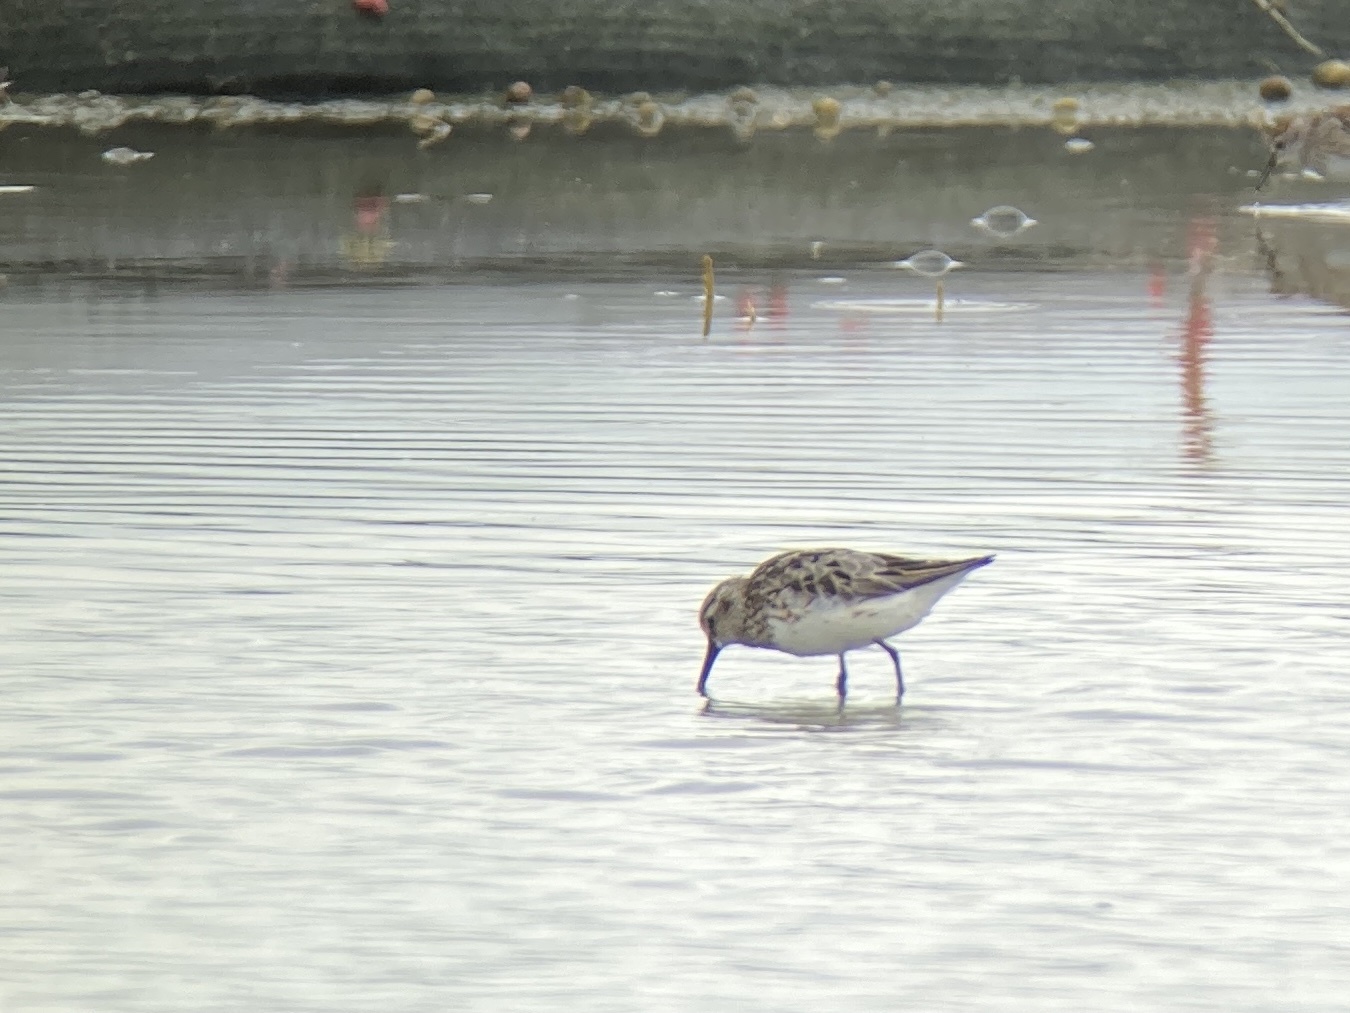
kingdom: Animalia
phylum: Chordata
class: Aves
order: Charadriiformes
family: Scolopacidae
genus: Calidris
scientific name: Calidris falcinellus
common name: Broad-billed sandpiper
